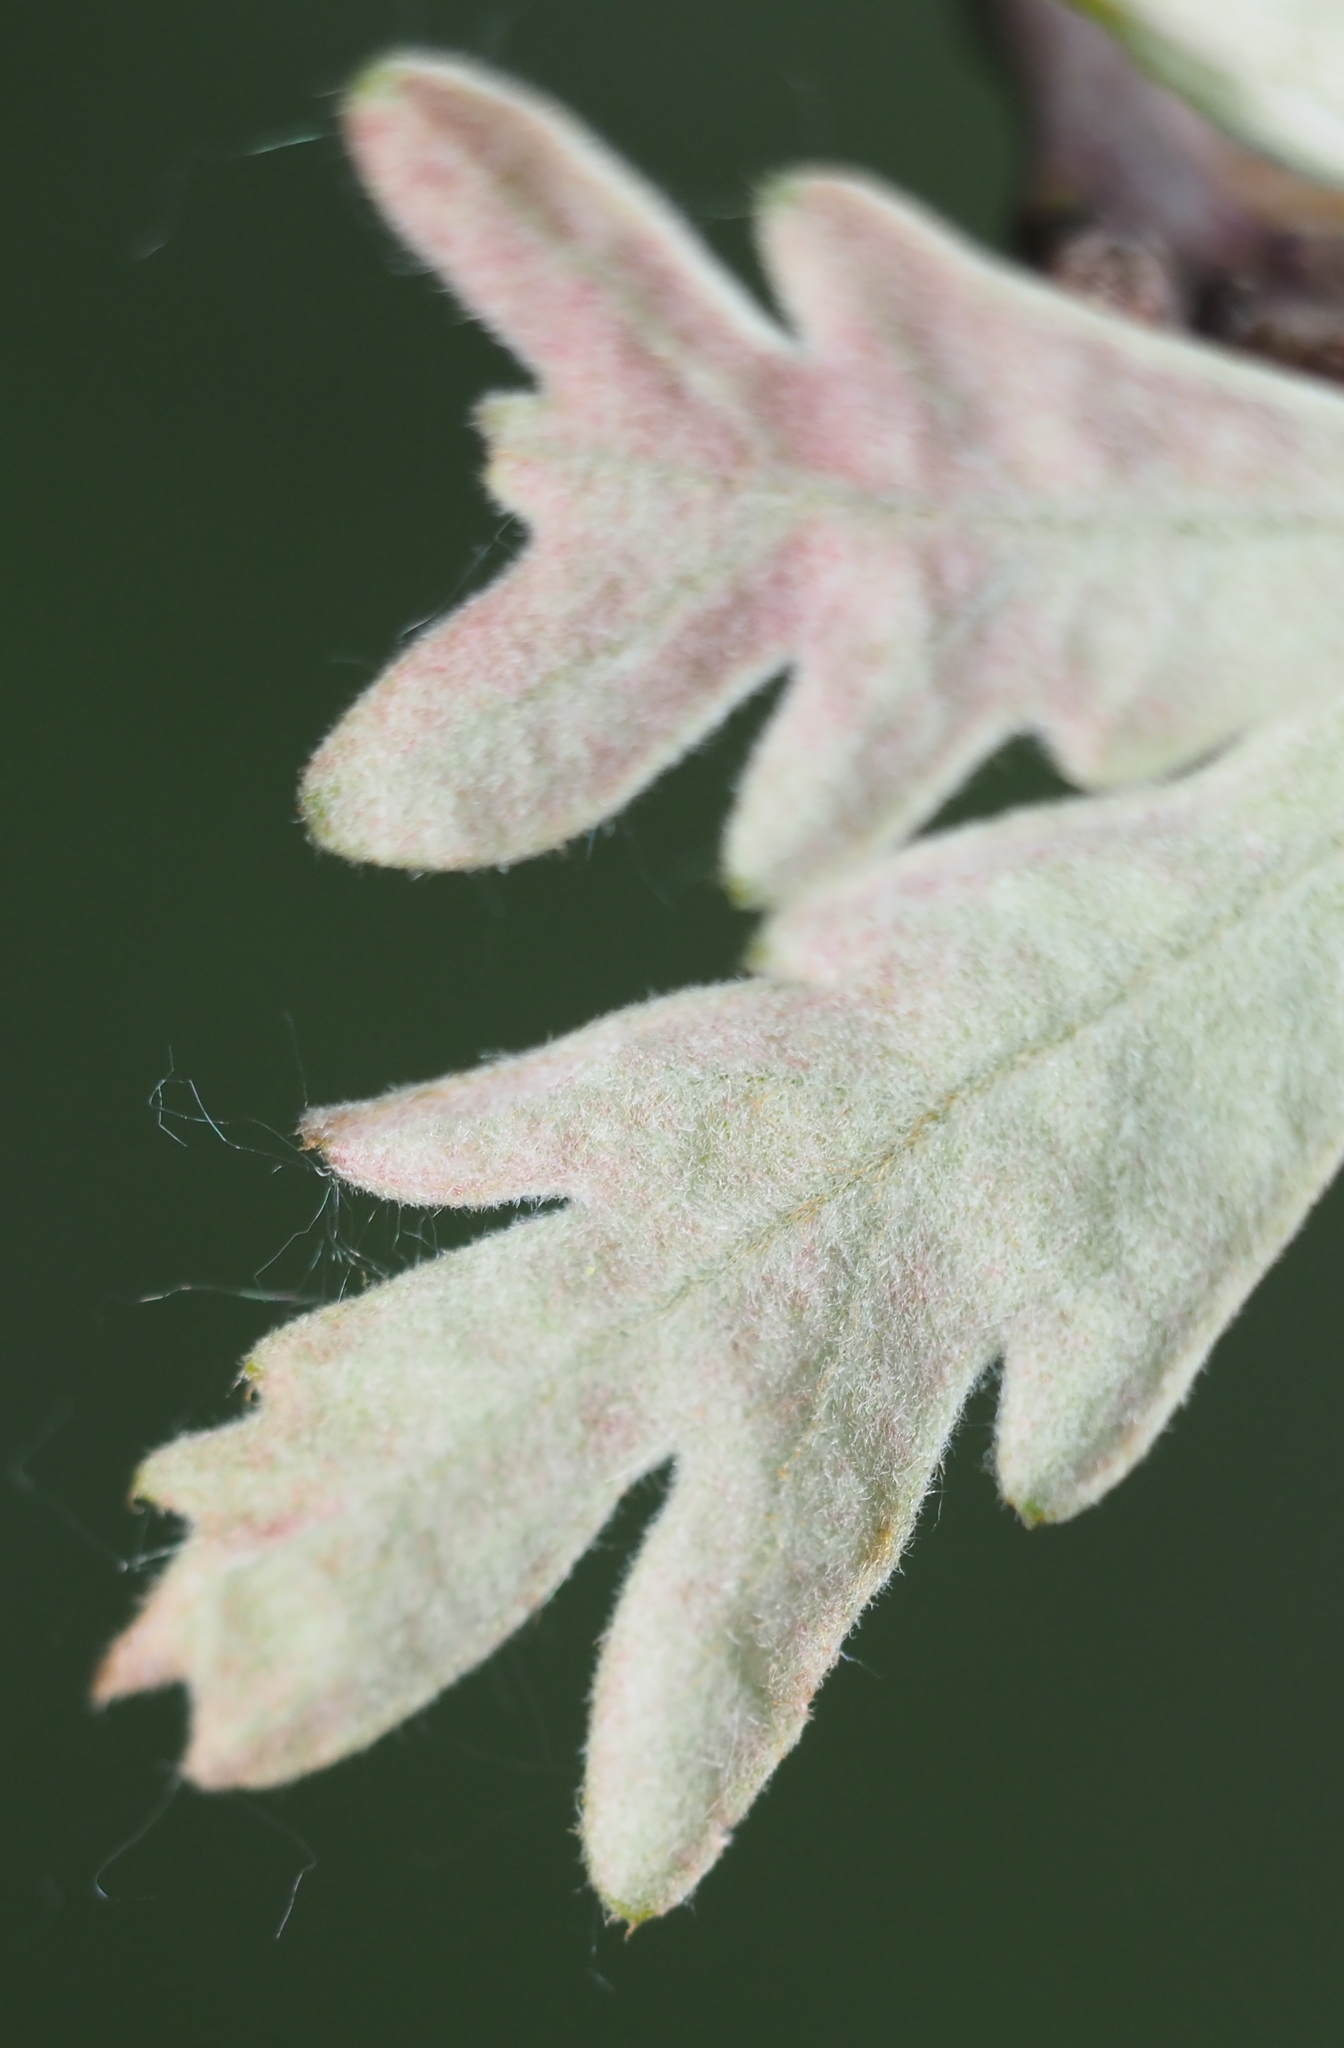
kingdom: Plantae
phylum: Tracheophyta
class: Magnoliopsida
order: Fagales
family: Fagaceae
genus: Quercus
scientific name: Quercus alba
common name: White oak
